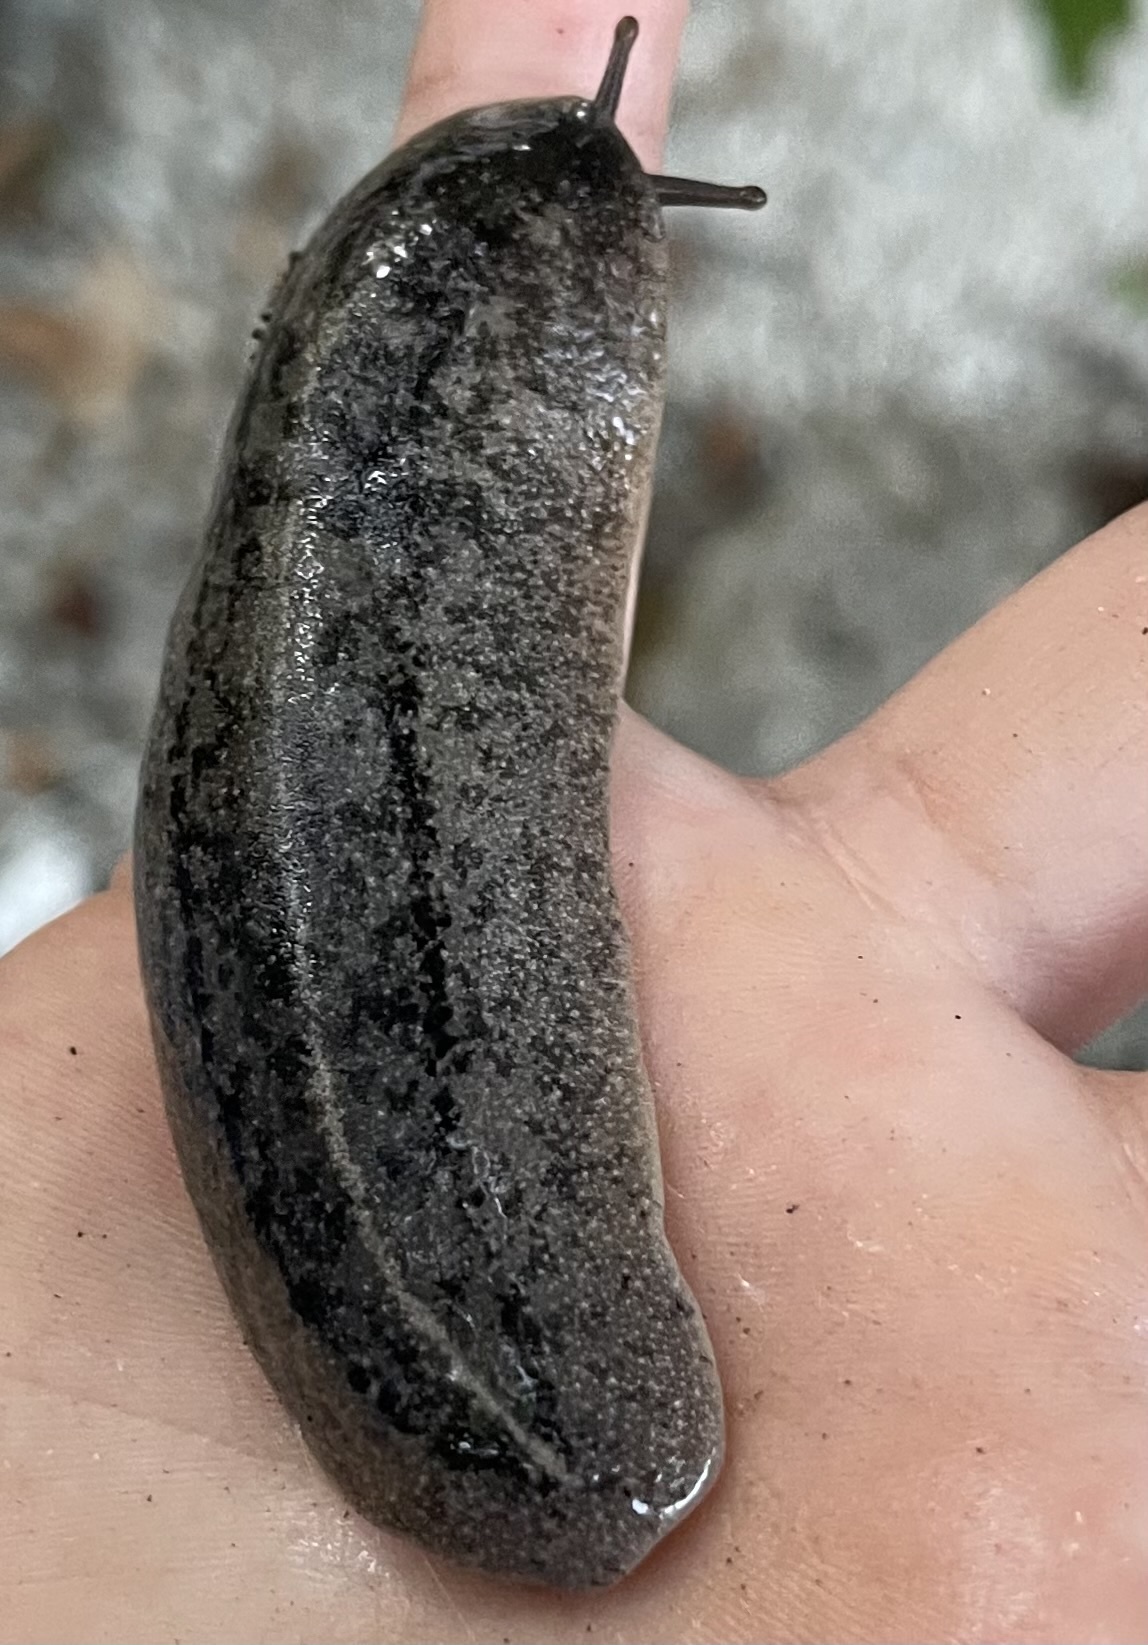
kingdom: Animalia
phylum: Mollusca
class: Gastropoda
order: Systellommatophora
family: Veronicellidae
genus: Leidyula
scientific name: Leidyula floridana
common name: Florida leatherleaf
